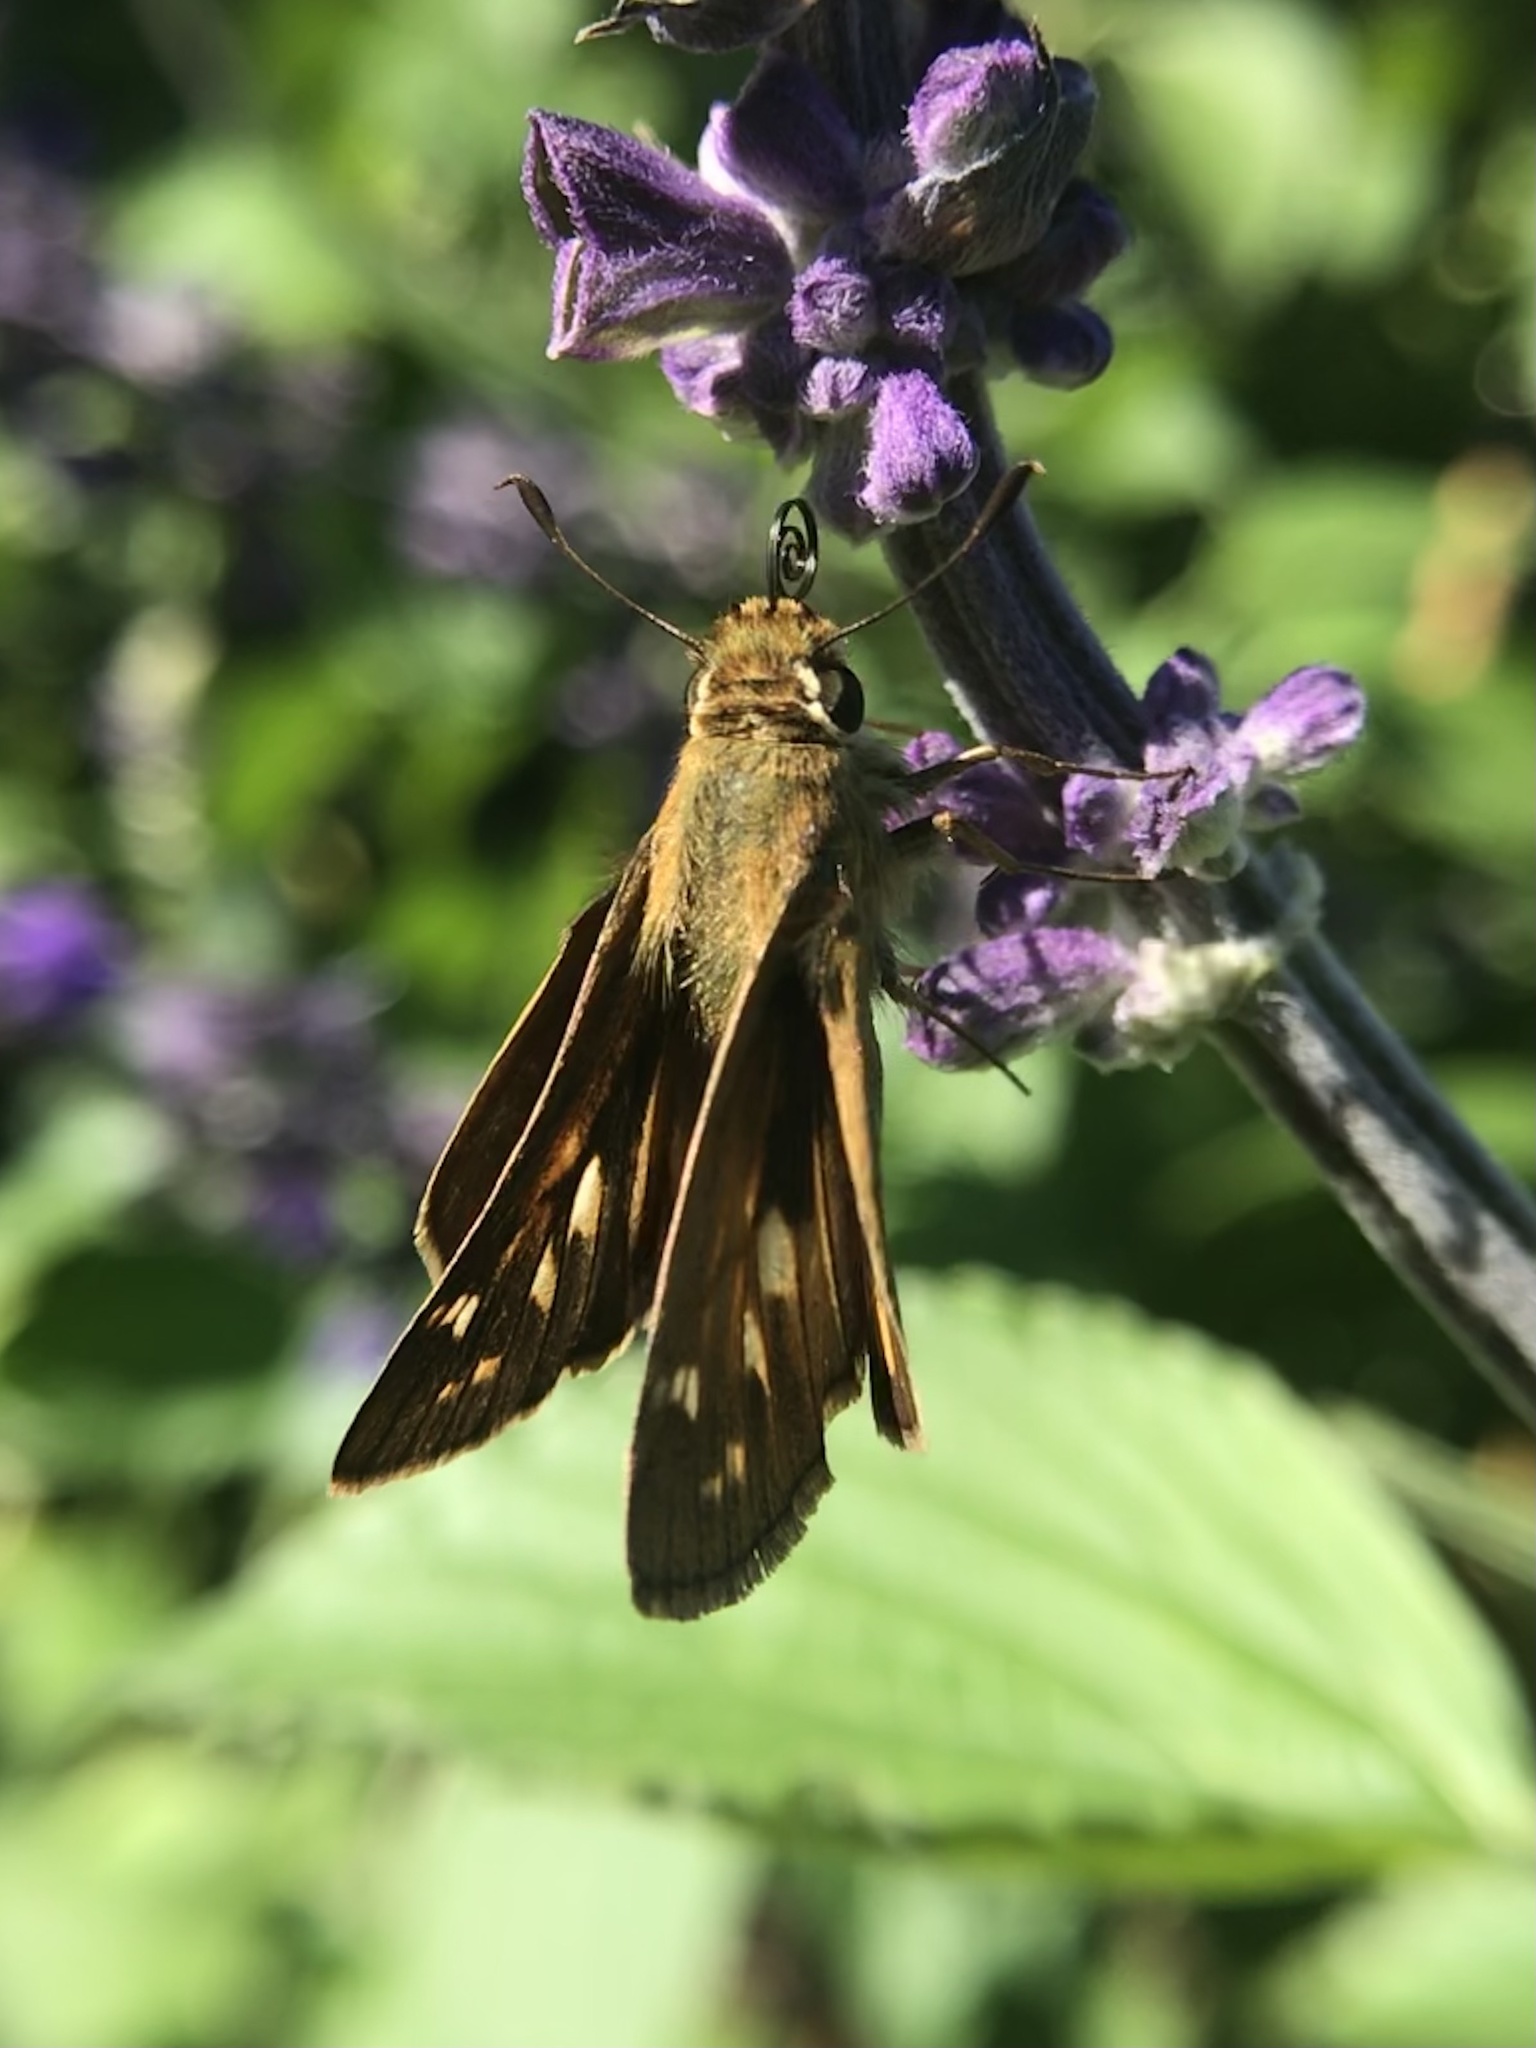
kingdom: Animalia
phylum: Arthropoda
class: Insecta
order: Lepidoptera
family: Hesperiidae
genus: Atalopedes
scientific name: Atalopedes
